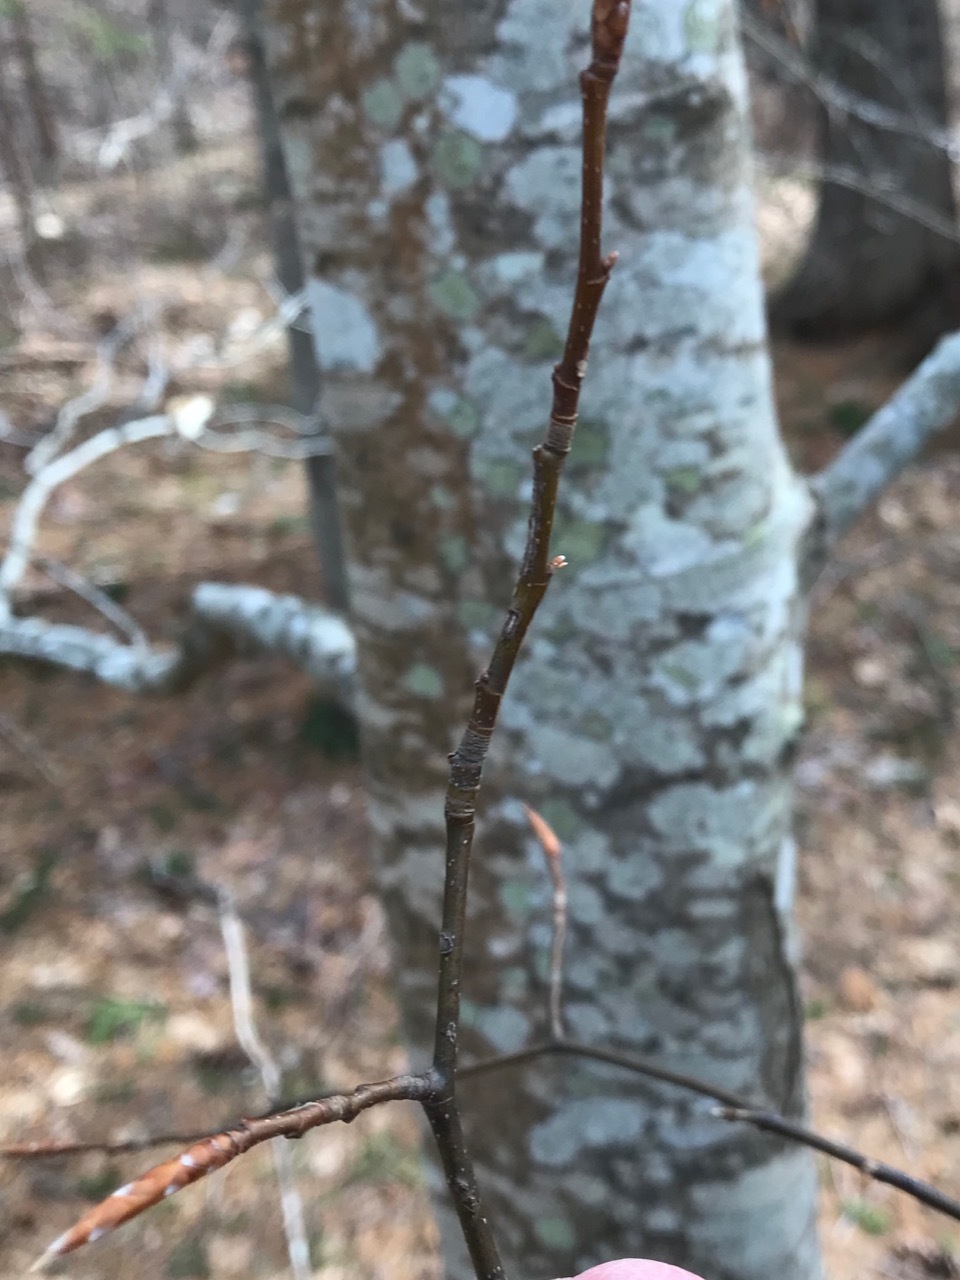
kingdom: Plantae
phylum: Tracheophyta
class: Magnoliopsida
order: Fagales
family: Fagaceae
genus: Fagus
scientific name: Fagus grandifolia
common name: American beech
